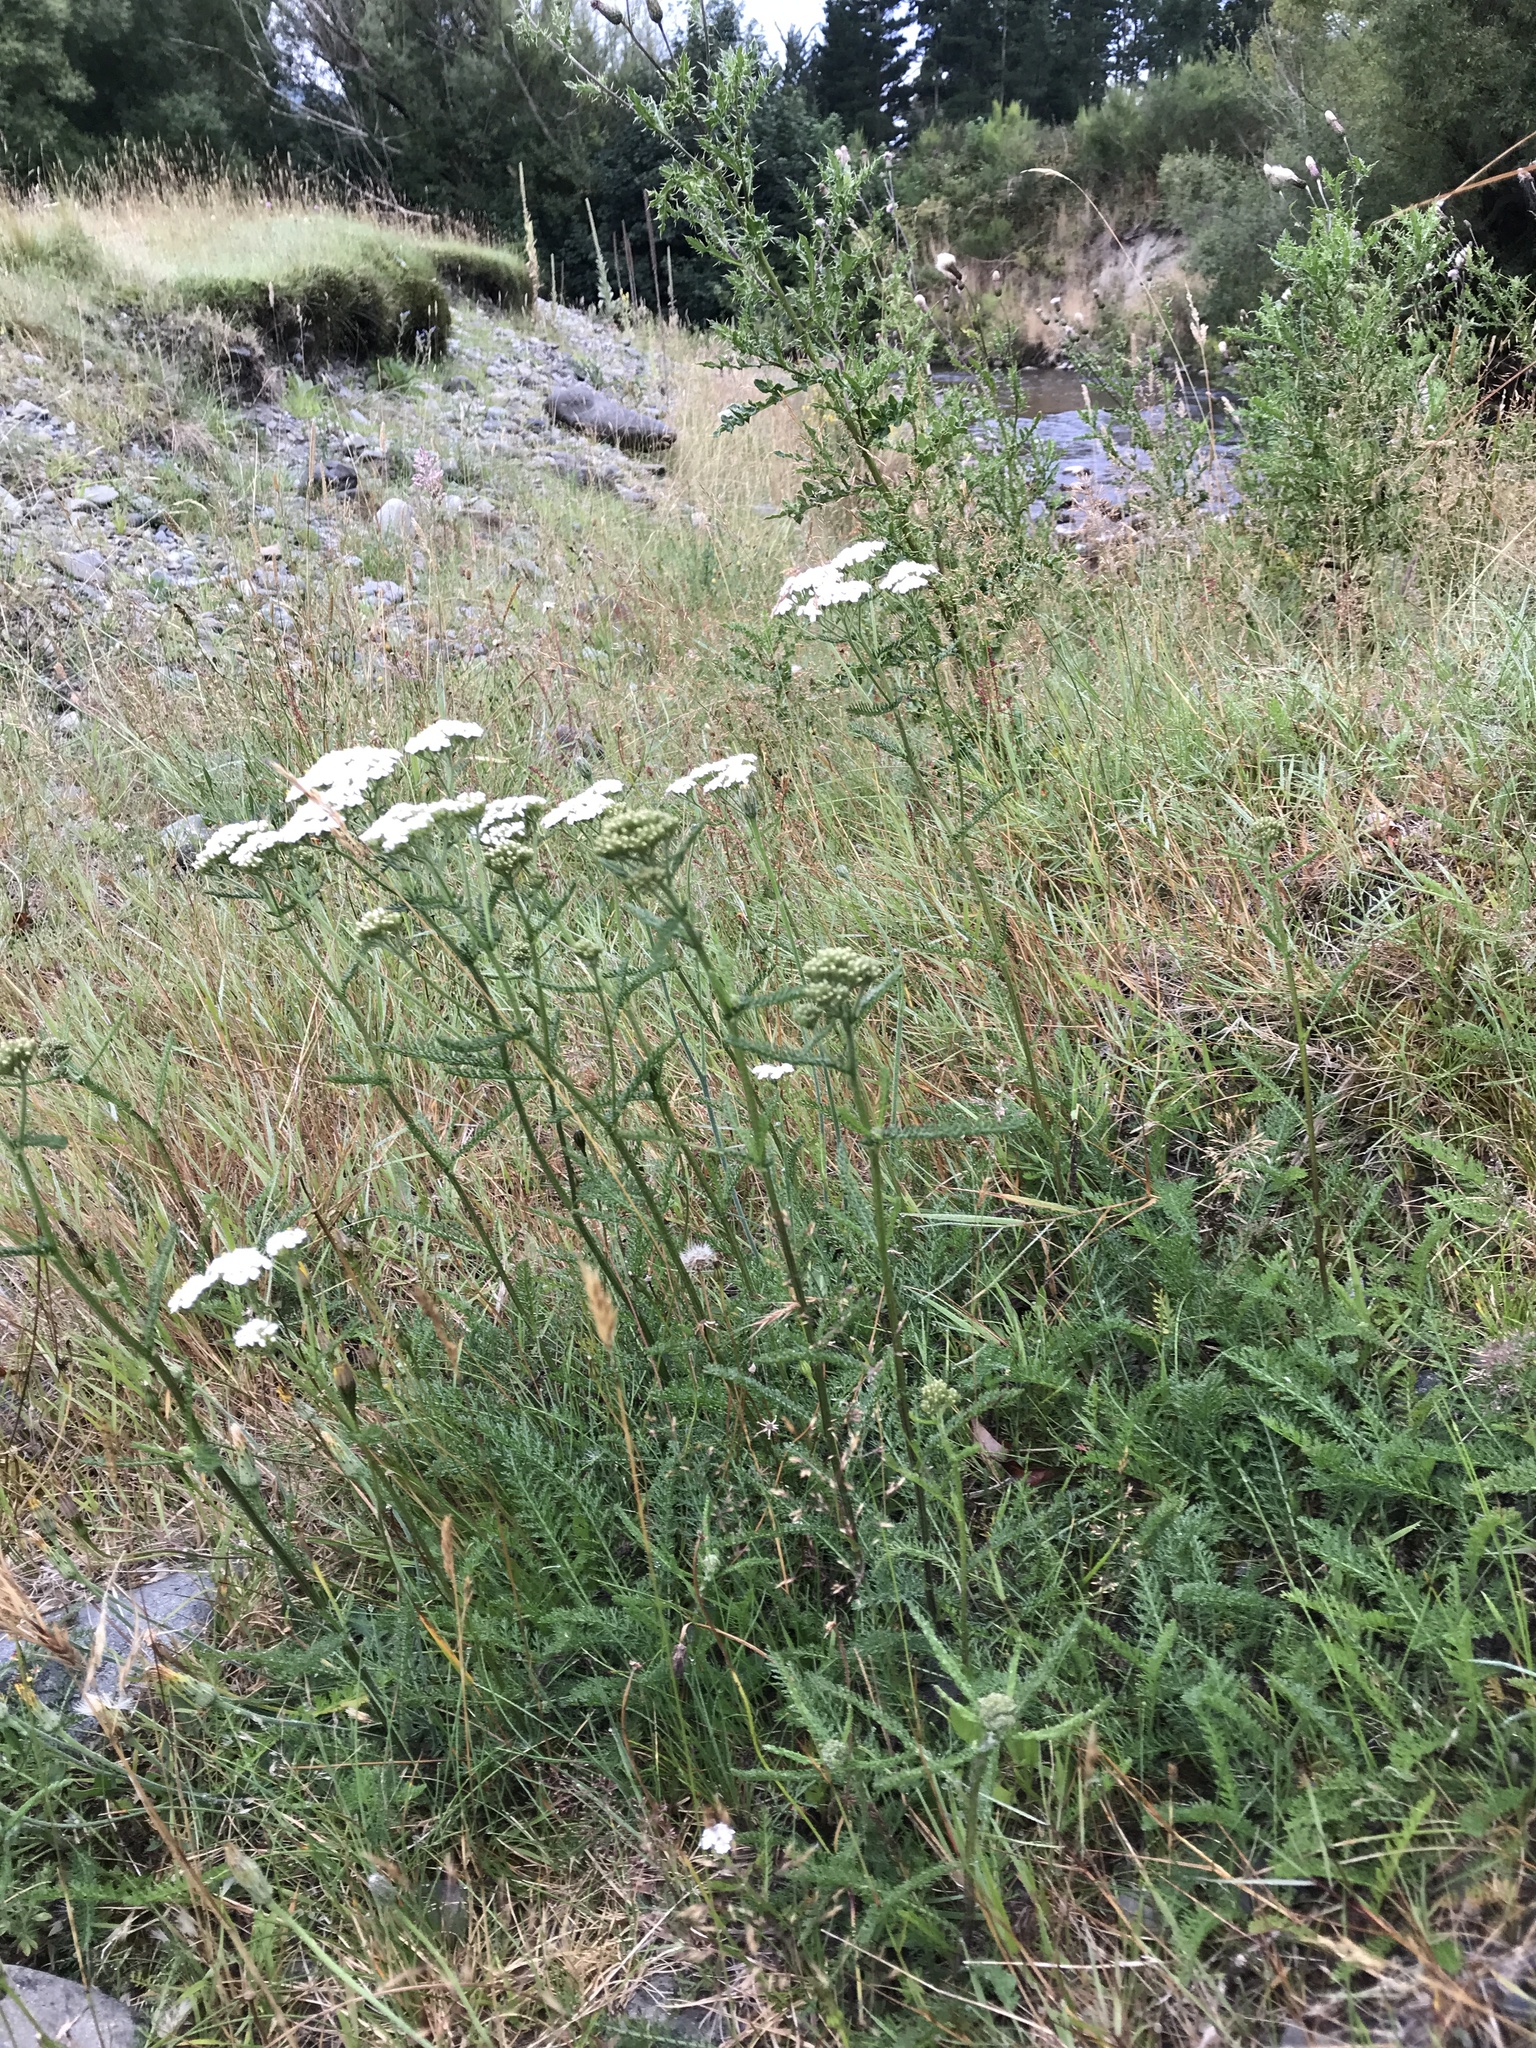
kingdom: Plantae
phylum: Tracheophyta
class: Magnoliopsida
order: Asterales
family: Asteraceae
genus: Achillea
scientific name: Achillea millefolium
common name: Yarrow
